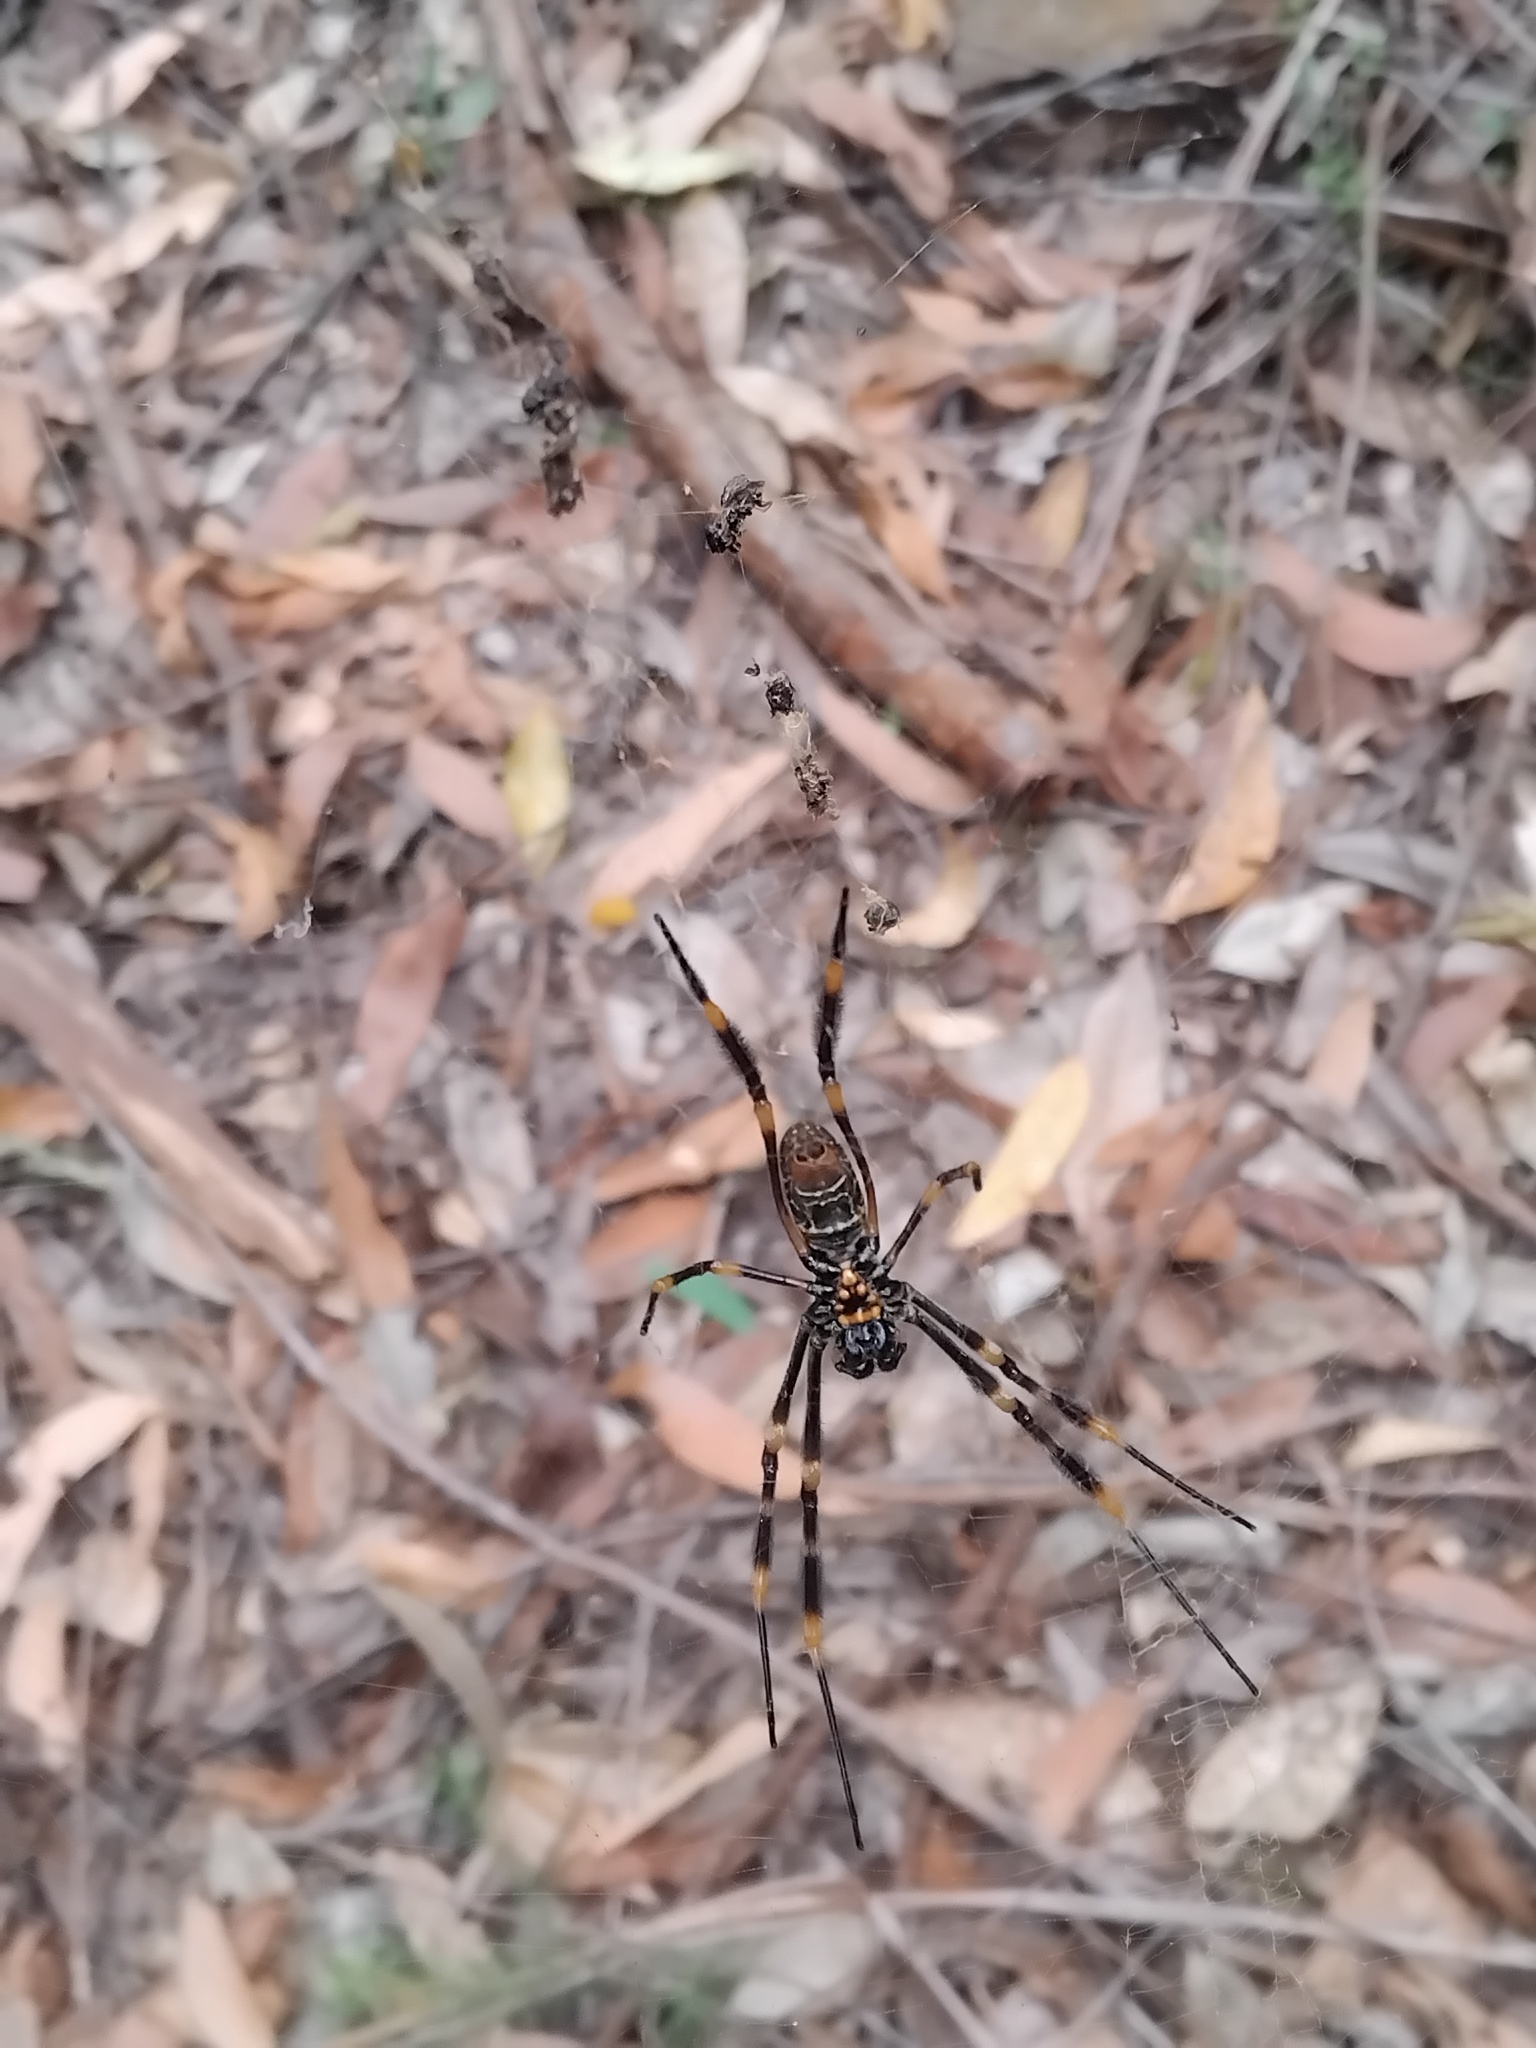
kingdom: Animalia
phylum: Arthropoda
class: Arachnida
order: Araneae
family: Araneidae
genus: Trichonephila
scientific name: Trichonephila plumipes
